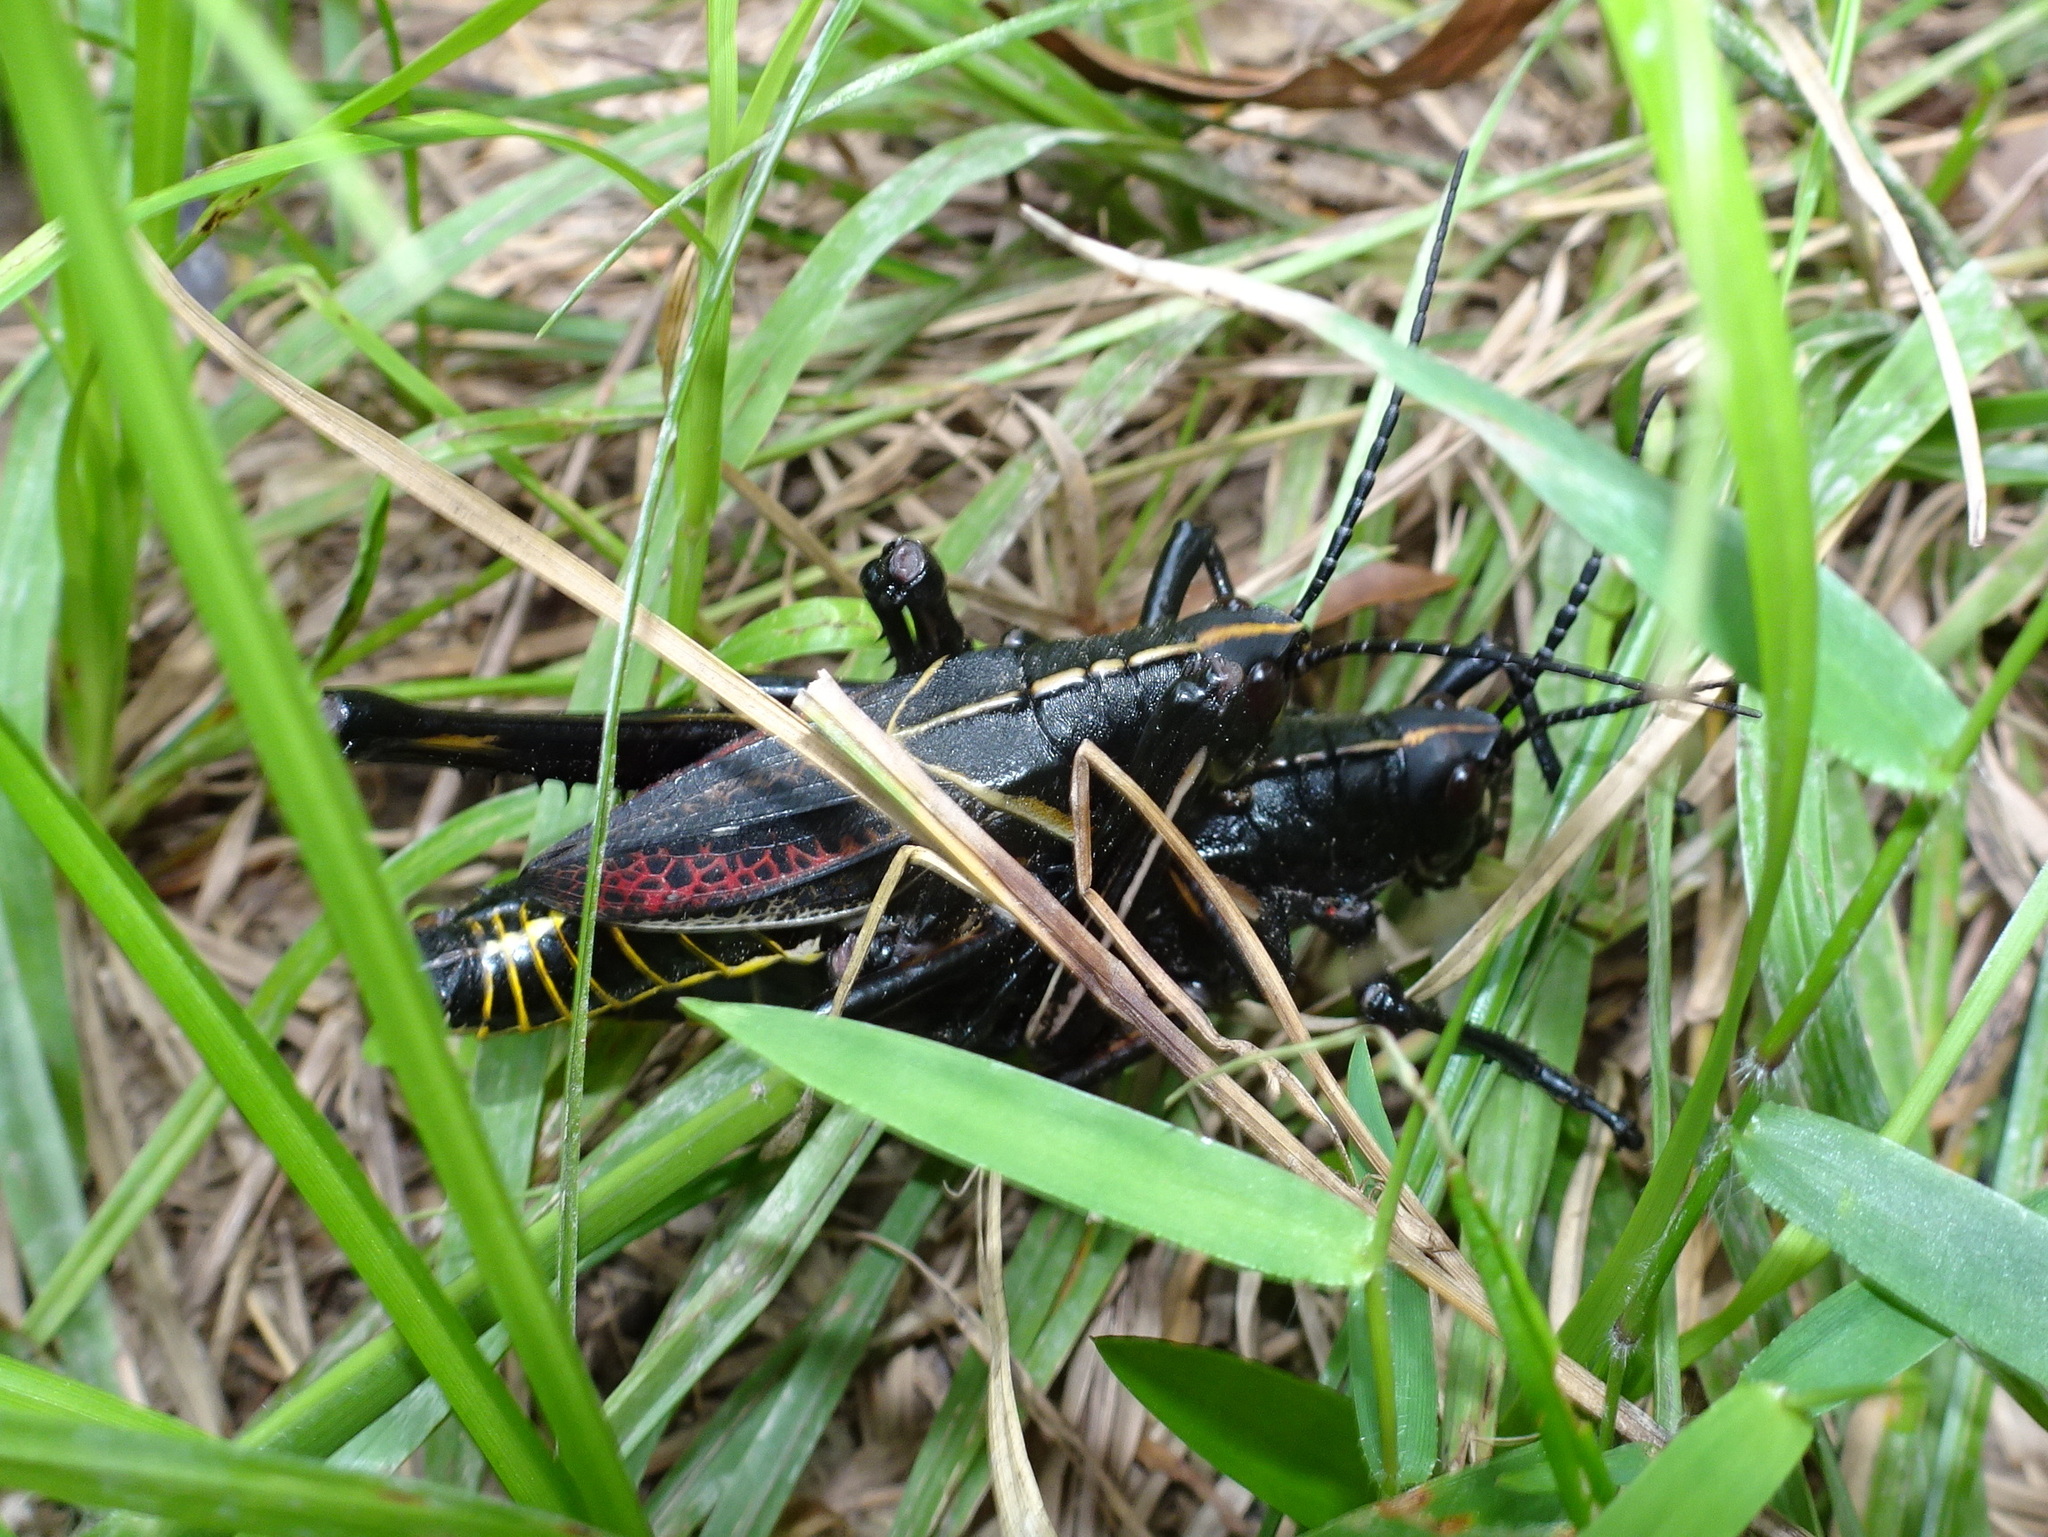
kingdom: Animalia
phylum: Arthropoda
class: Insecta
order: Orthoptera
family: Romaleidae
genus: Romalea
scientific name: Romalea microptera
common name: Eastern lubber grasshopper
